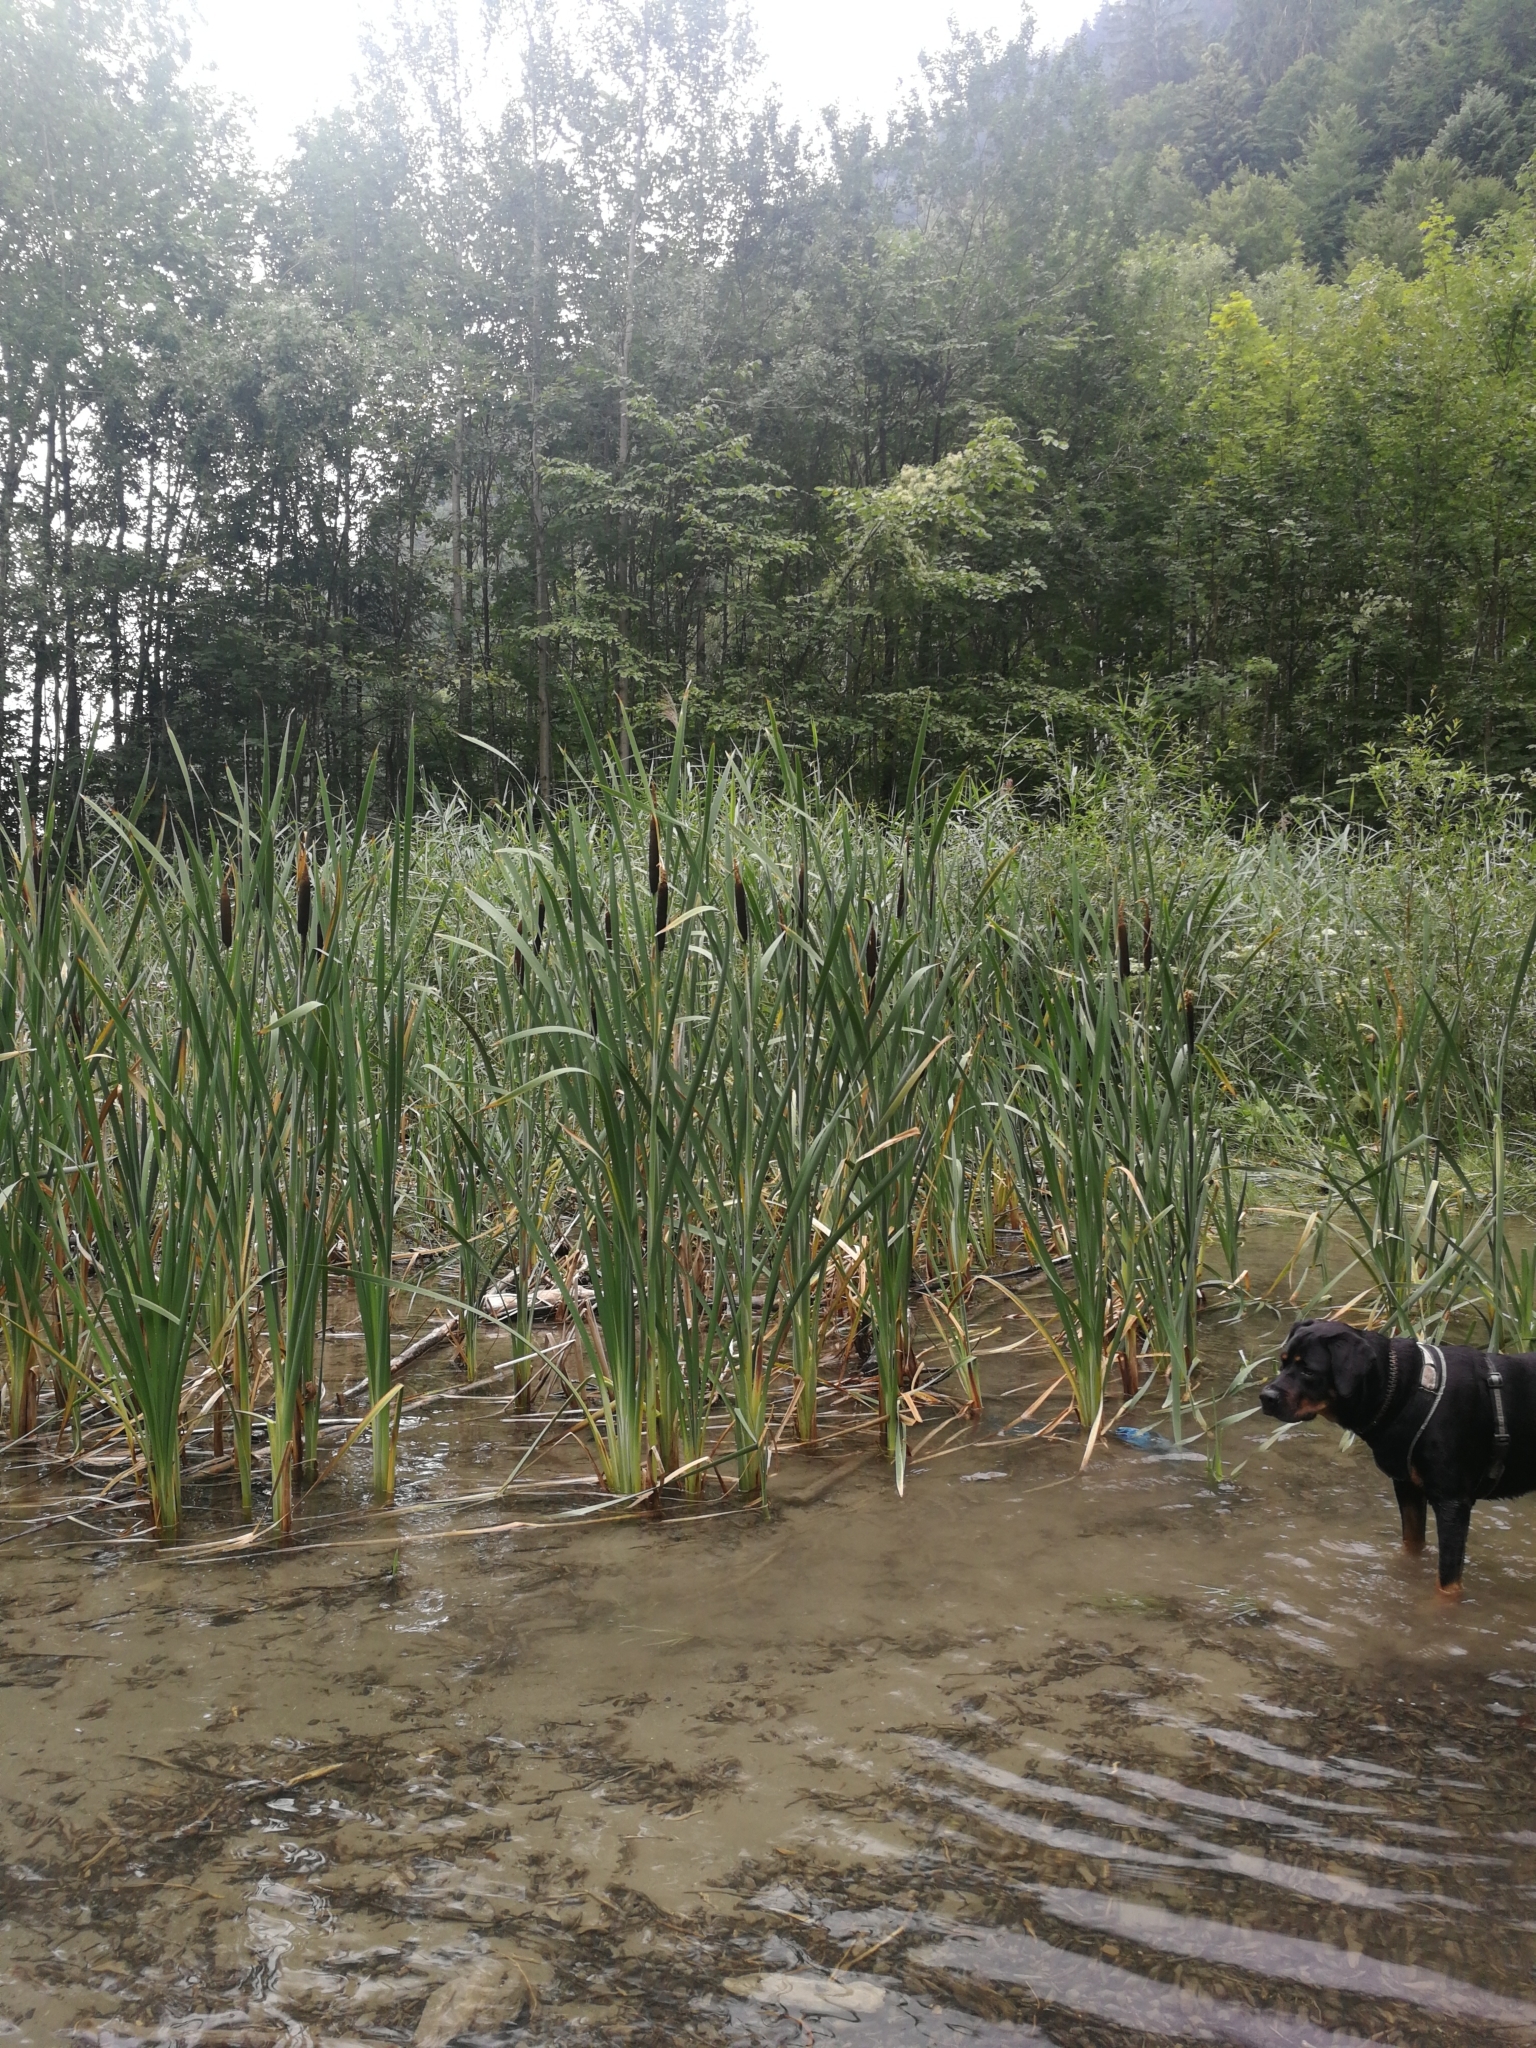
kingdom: Plantae
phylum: Tracheophyta
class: Liliopsida
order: Poales
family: Typhaceae
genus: Typha
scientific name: Typha latifolia
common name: Broadleaf cattail
